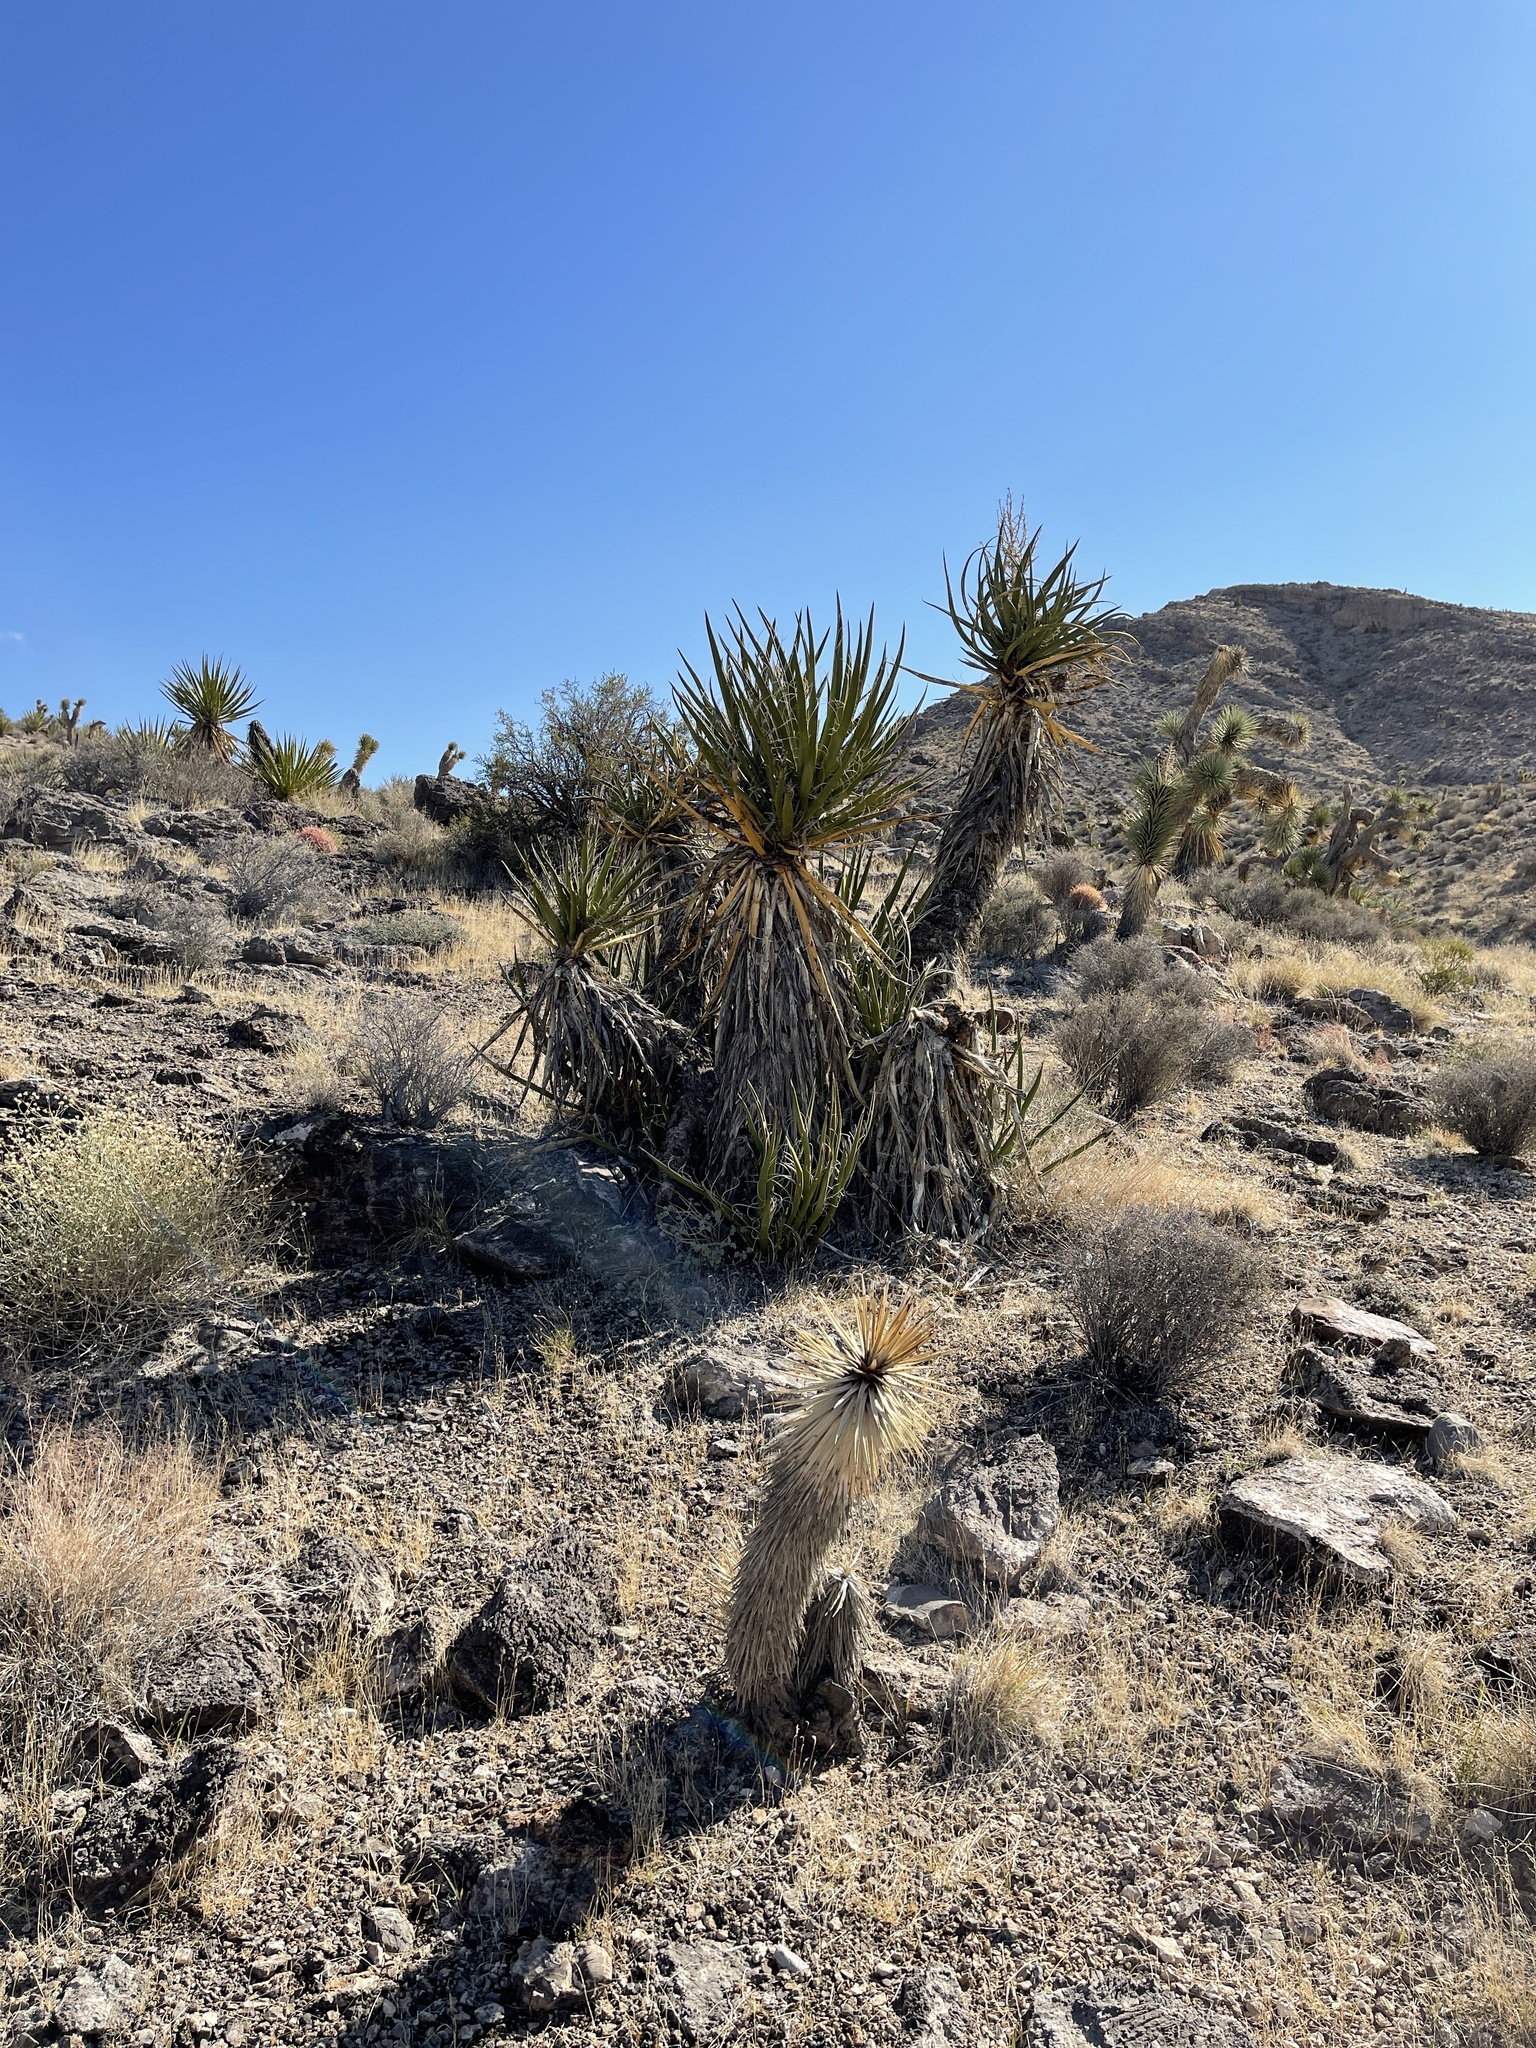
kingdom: Plantae
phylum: Tracheophyta
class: Liliopsida
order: Asparagales
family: Asparagaceae
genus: Yucca
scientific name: Yucca schidigera
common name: Mojave yucca
